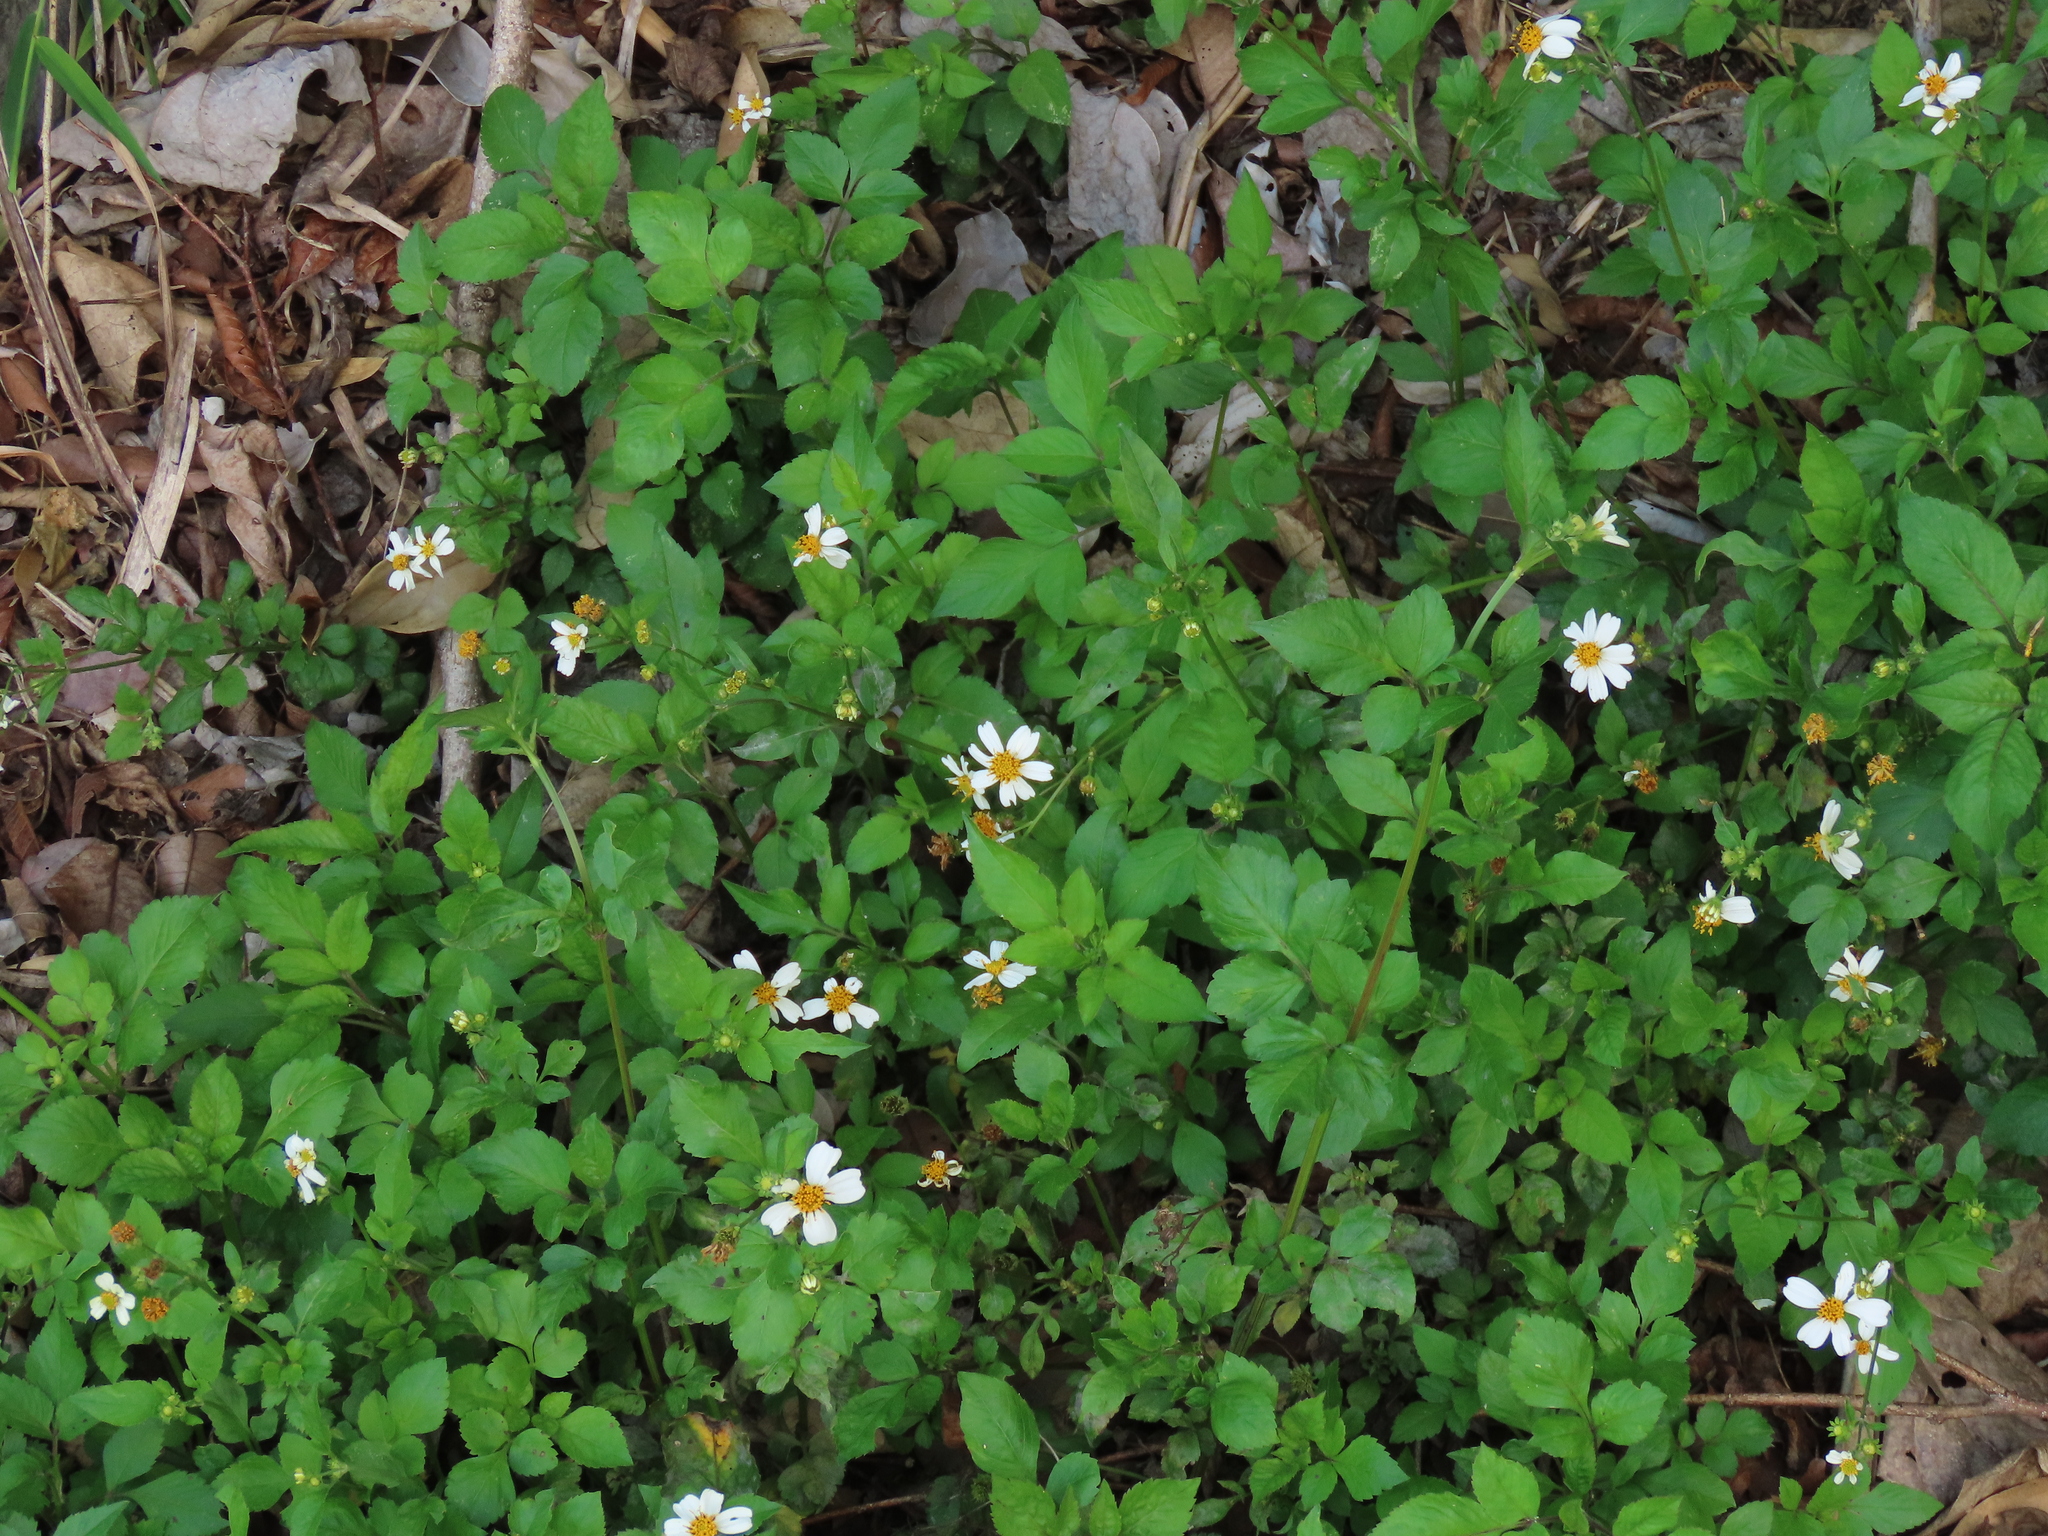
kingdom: Plantae
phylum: Tracheophyta
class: Magnoliopsida
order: Asterales
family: Asteraceae
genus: Bidens
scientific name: Bidens alba
